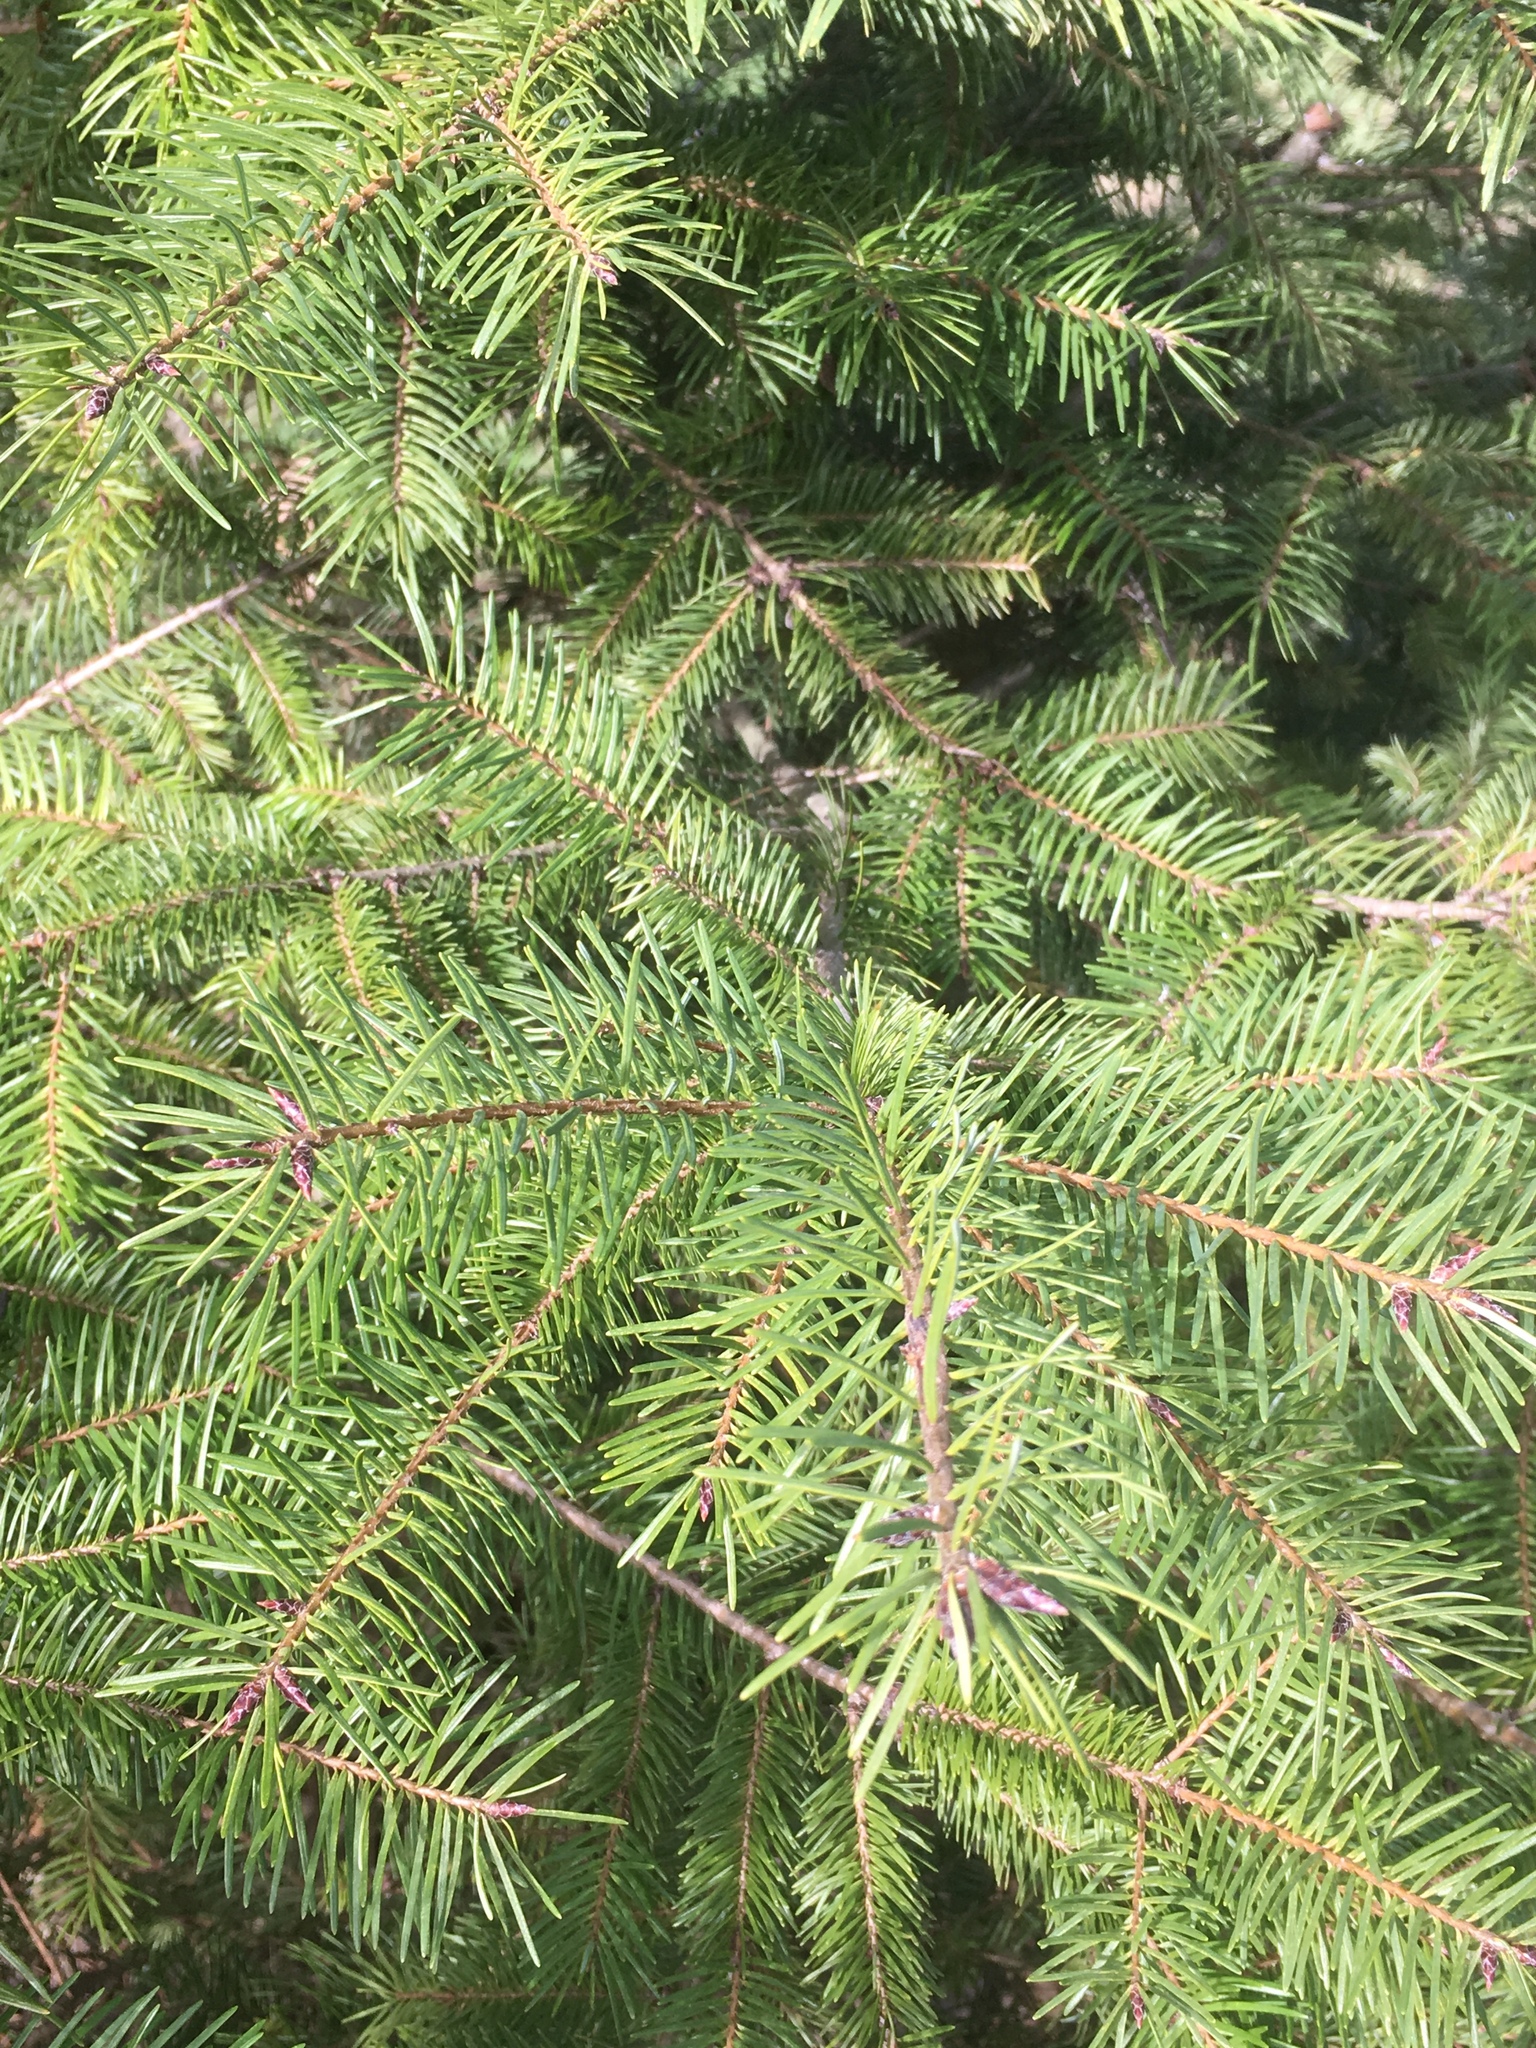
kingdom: Plantae
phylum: Tracheophyta
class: Pinopsida
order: Pinales
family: Pinaceae
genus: Pseudotsuga
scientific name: Pseudotsuga menziesii
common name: Douglas fir
